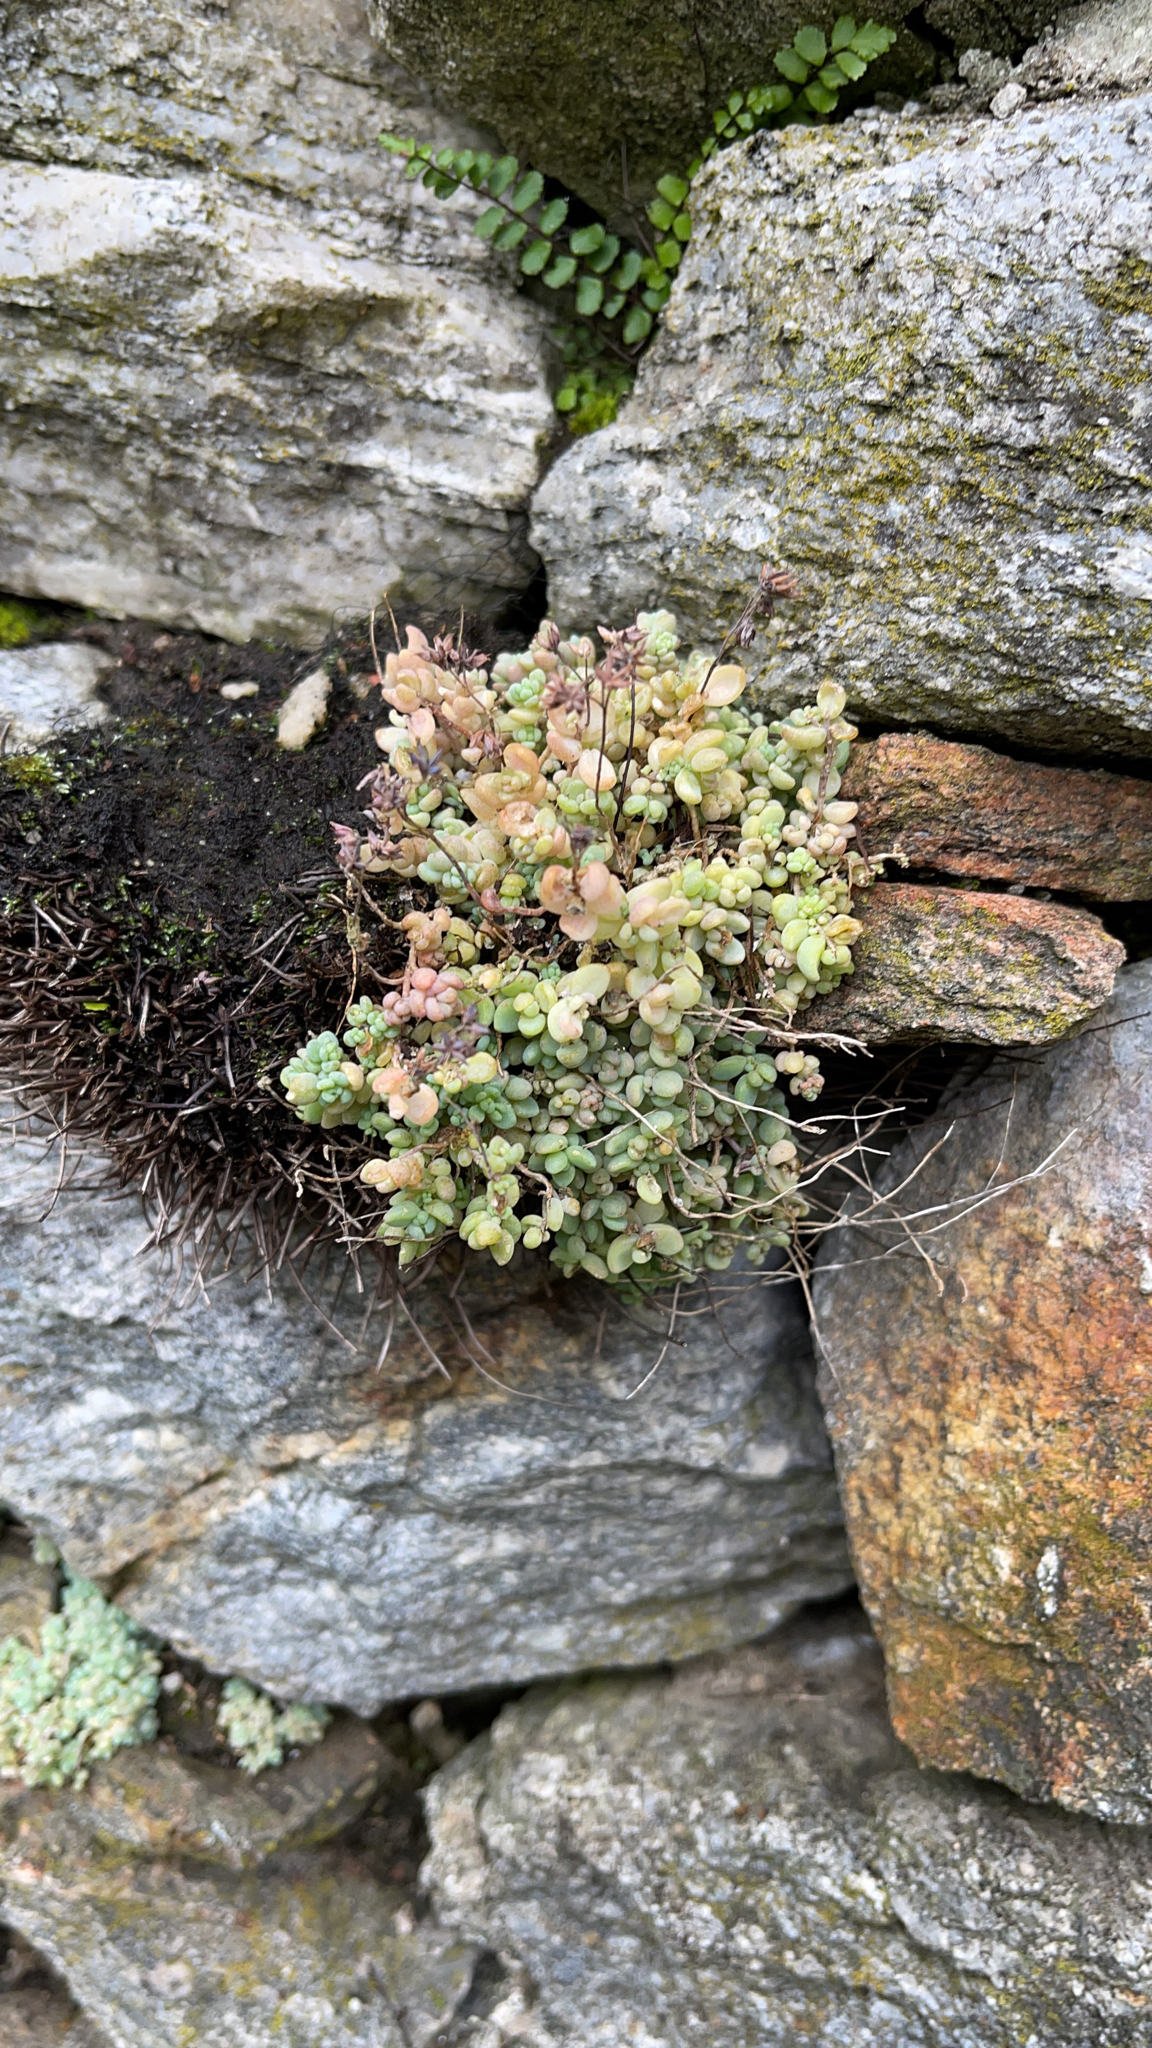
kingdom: Plantae
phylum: Tracheophyta
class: Magnoliopsida
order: Saxifragales
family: Crassulaceae
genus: Sedum
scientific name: Sedum dasyphyllum
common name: Thick-leaf stonecrop
